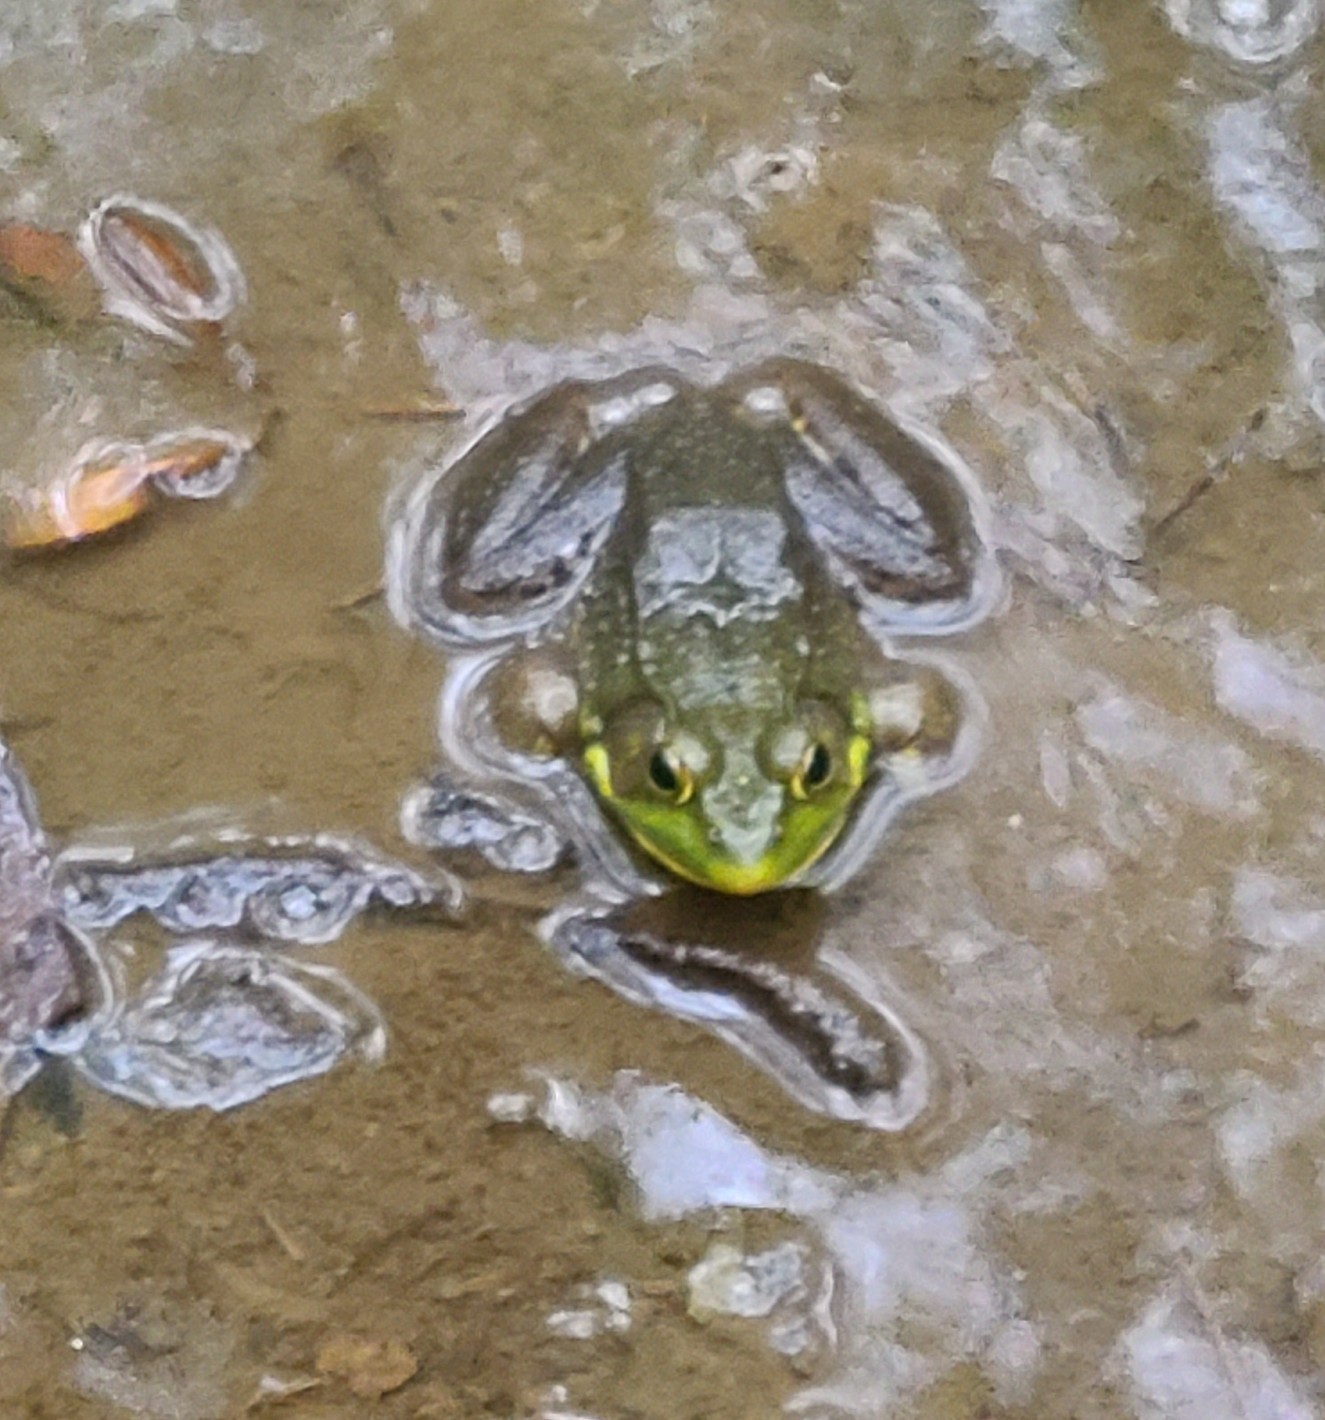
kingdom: Animalia
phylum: Chordata
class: Amphibia
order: Anura
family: Ranidae
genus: Lithobates
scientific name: Lithobates clamitans
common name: Green frog
